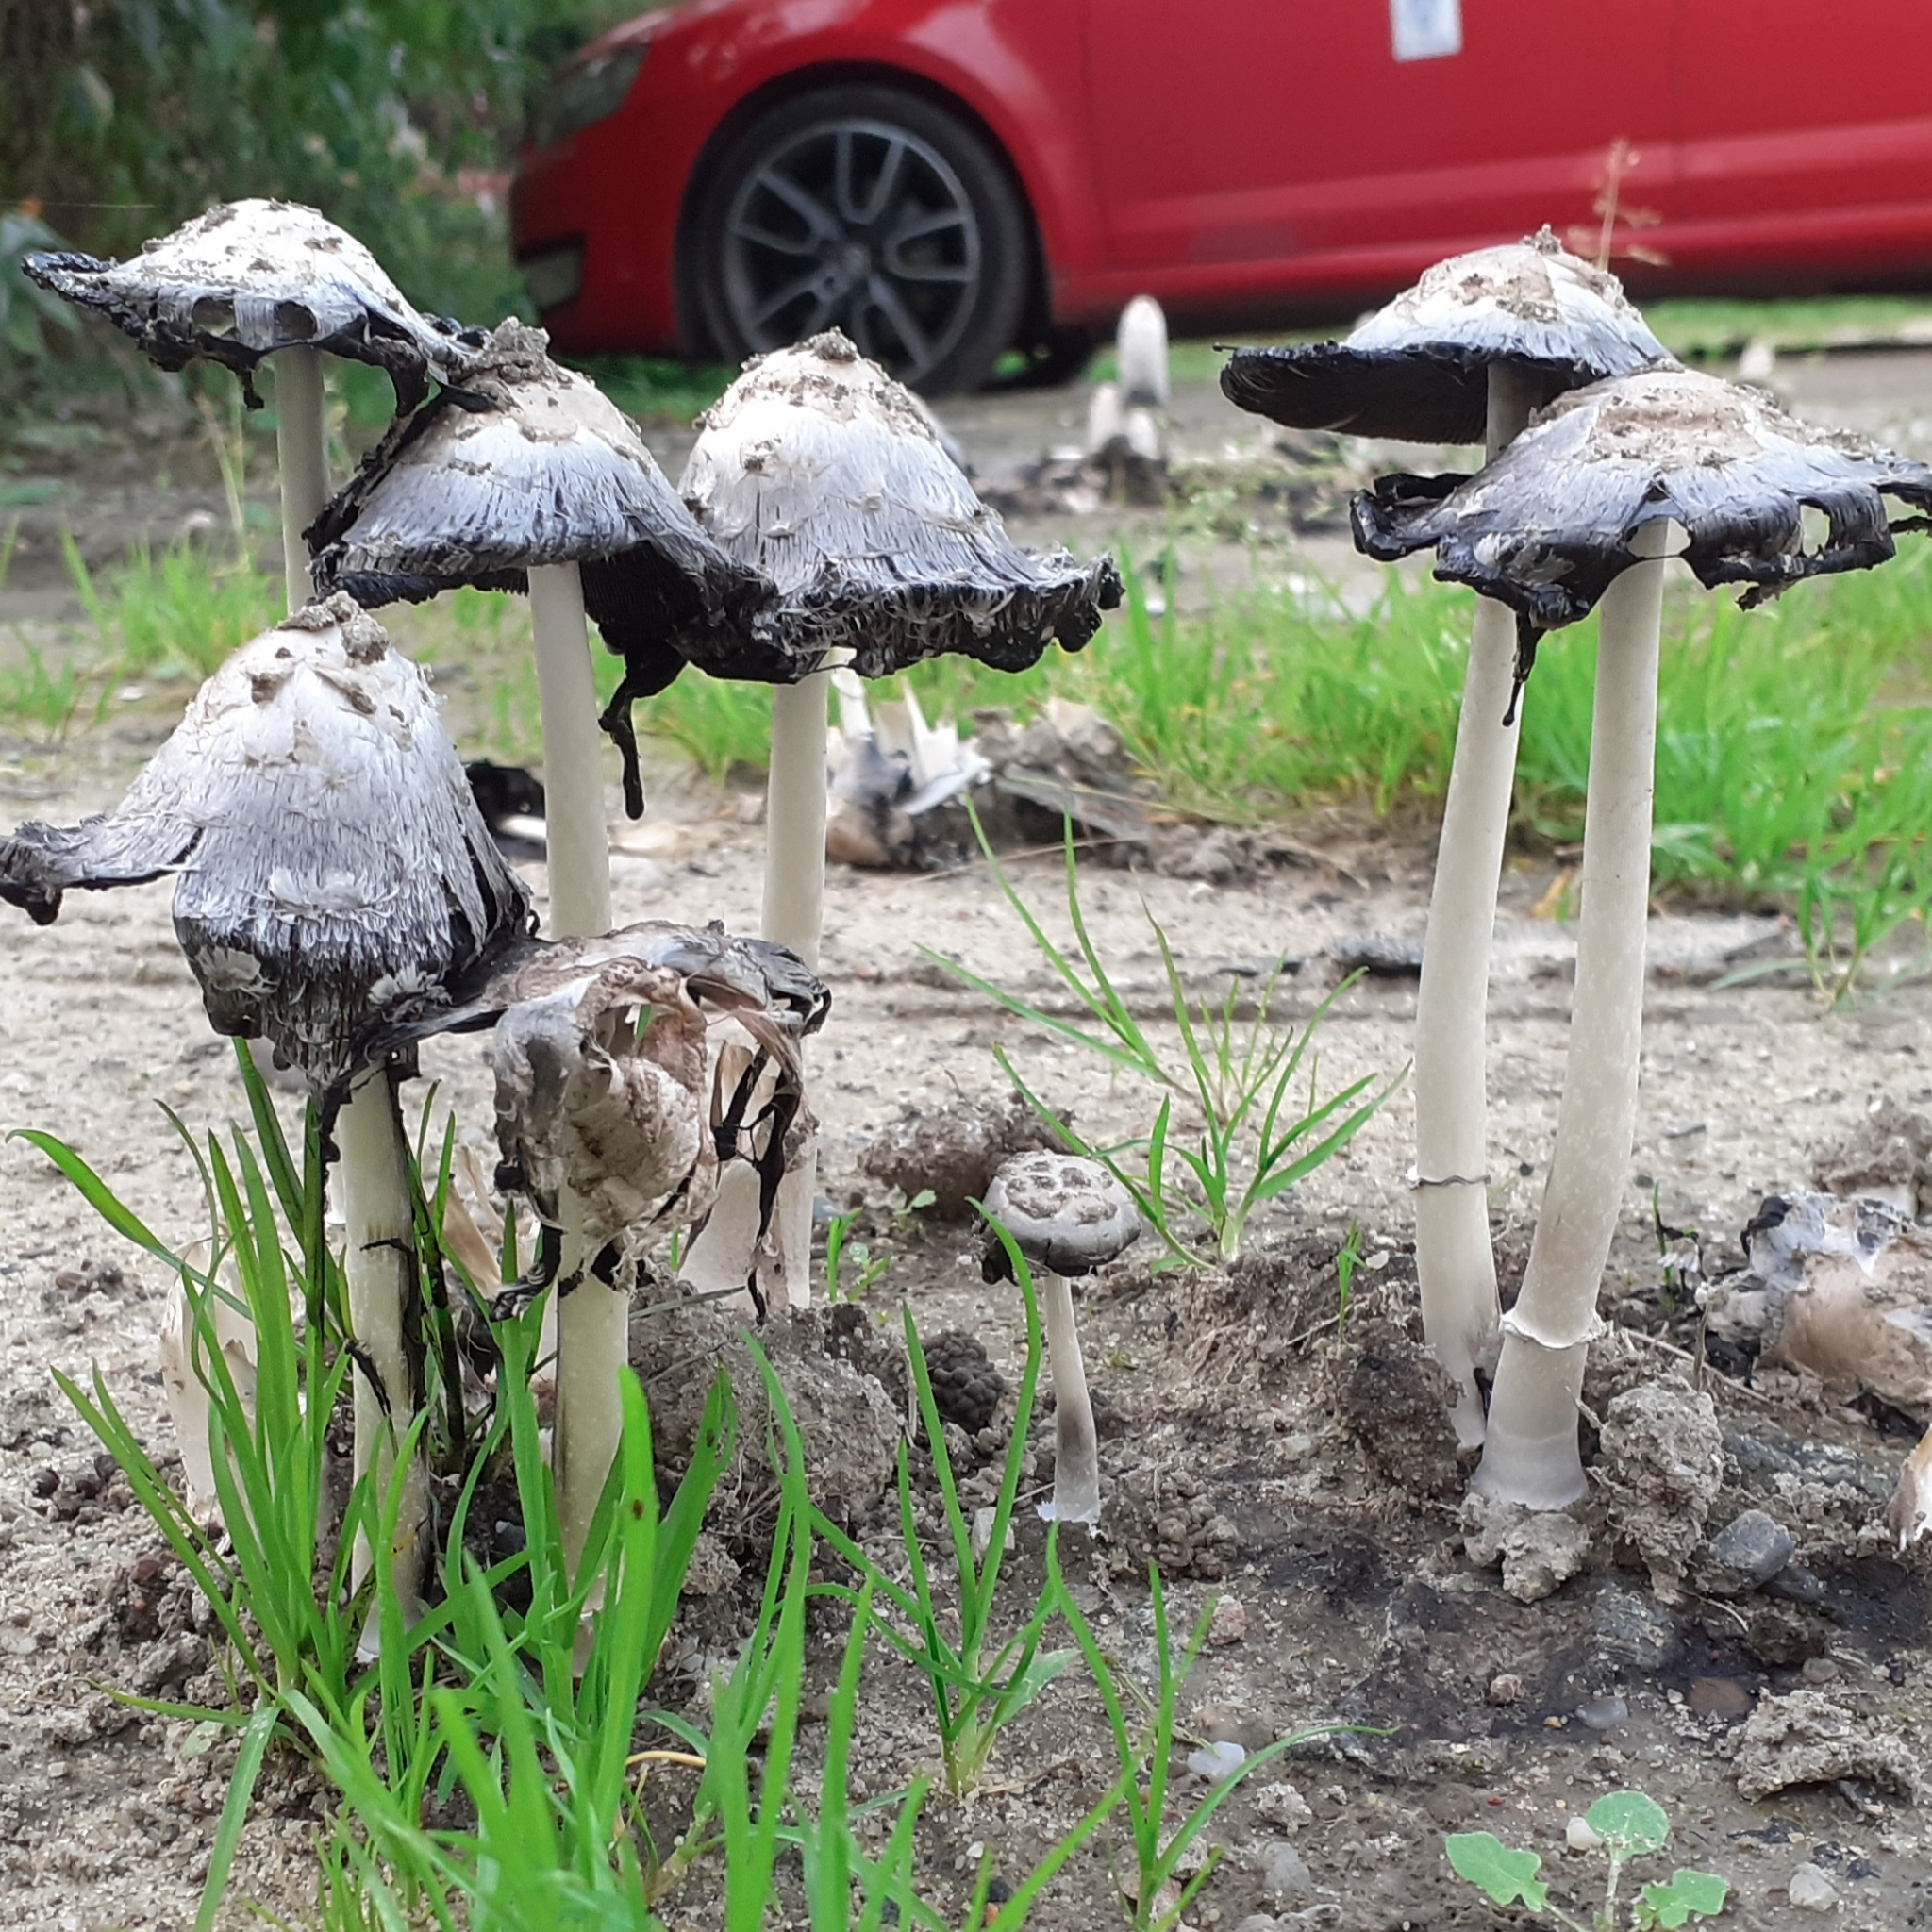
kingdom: Fungi
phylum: Basidiomycota
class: Agaricomycetes
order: Agaricales
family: Agaricaceae
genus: Coprinus
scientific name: Coprinus comatus
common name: Lawyer's wig
